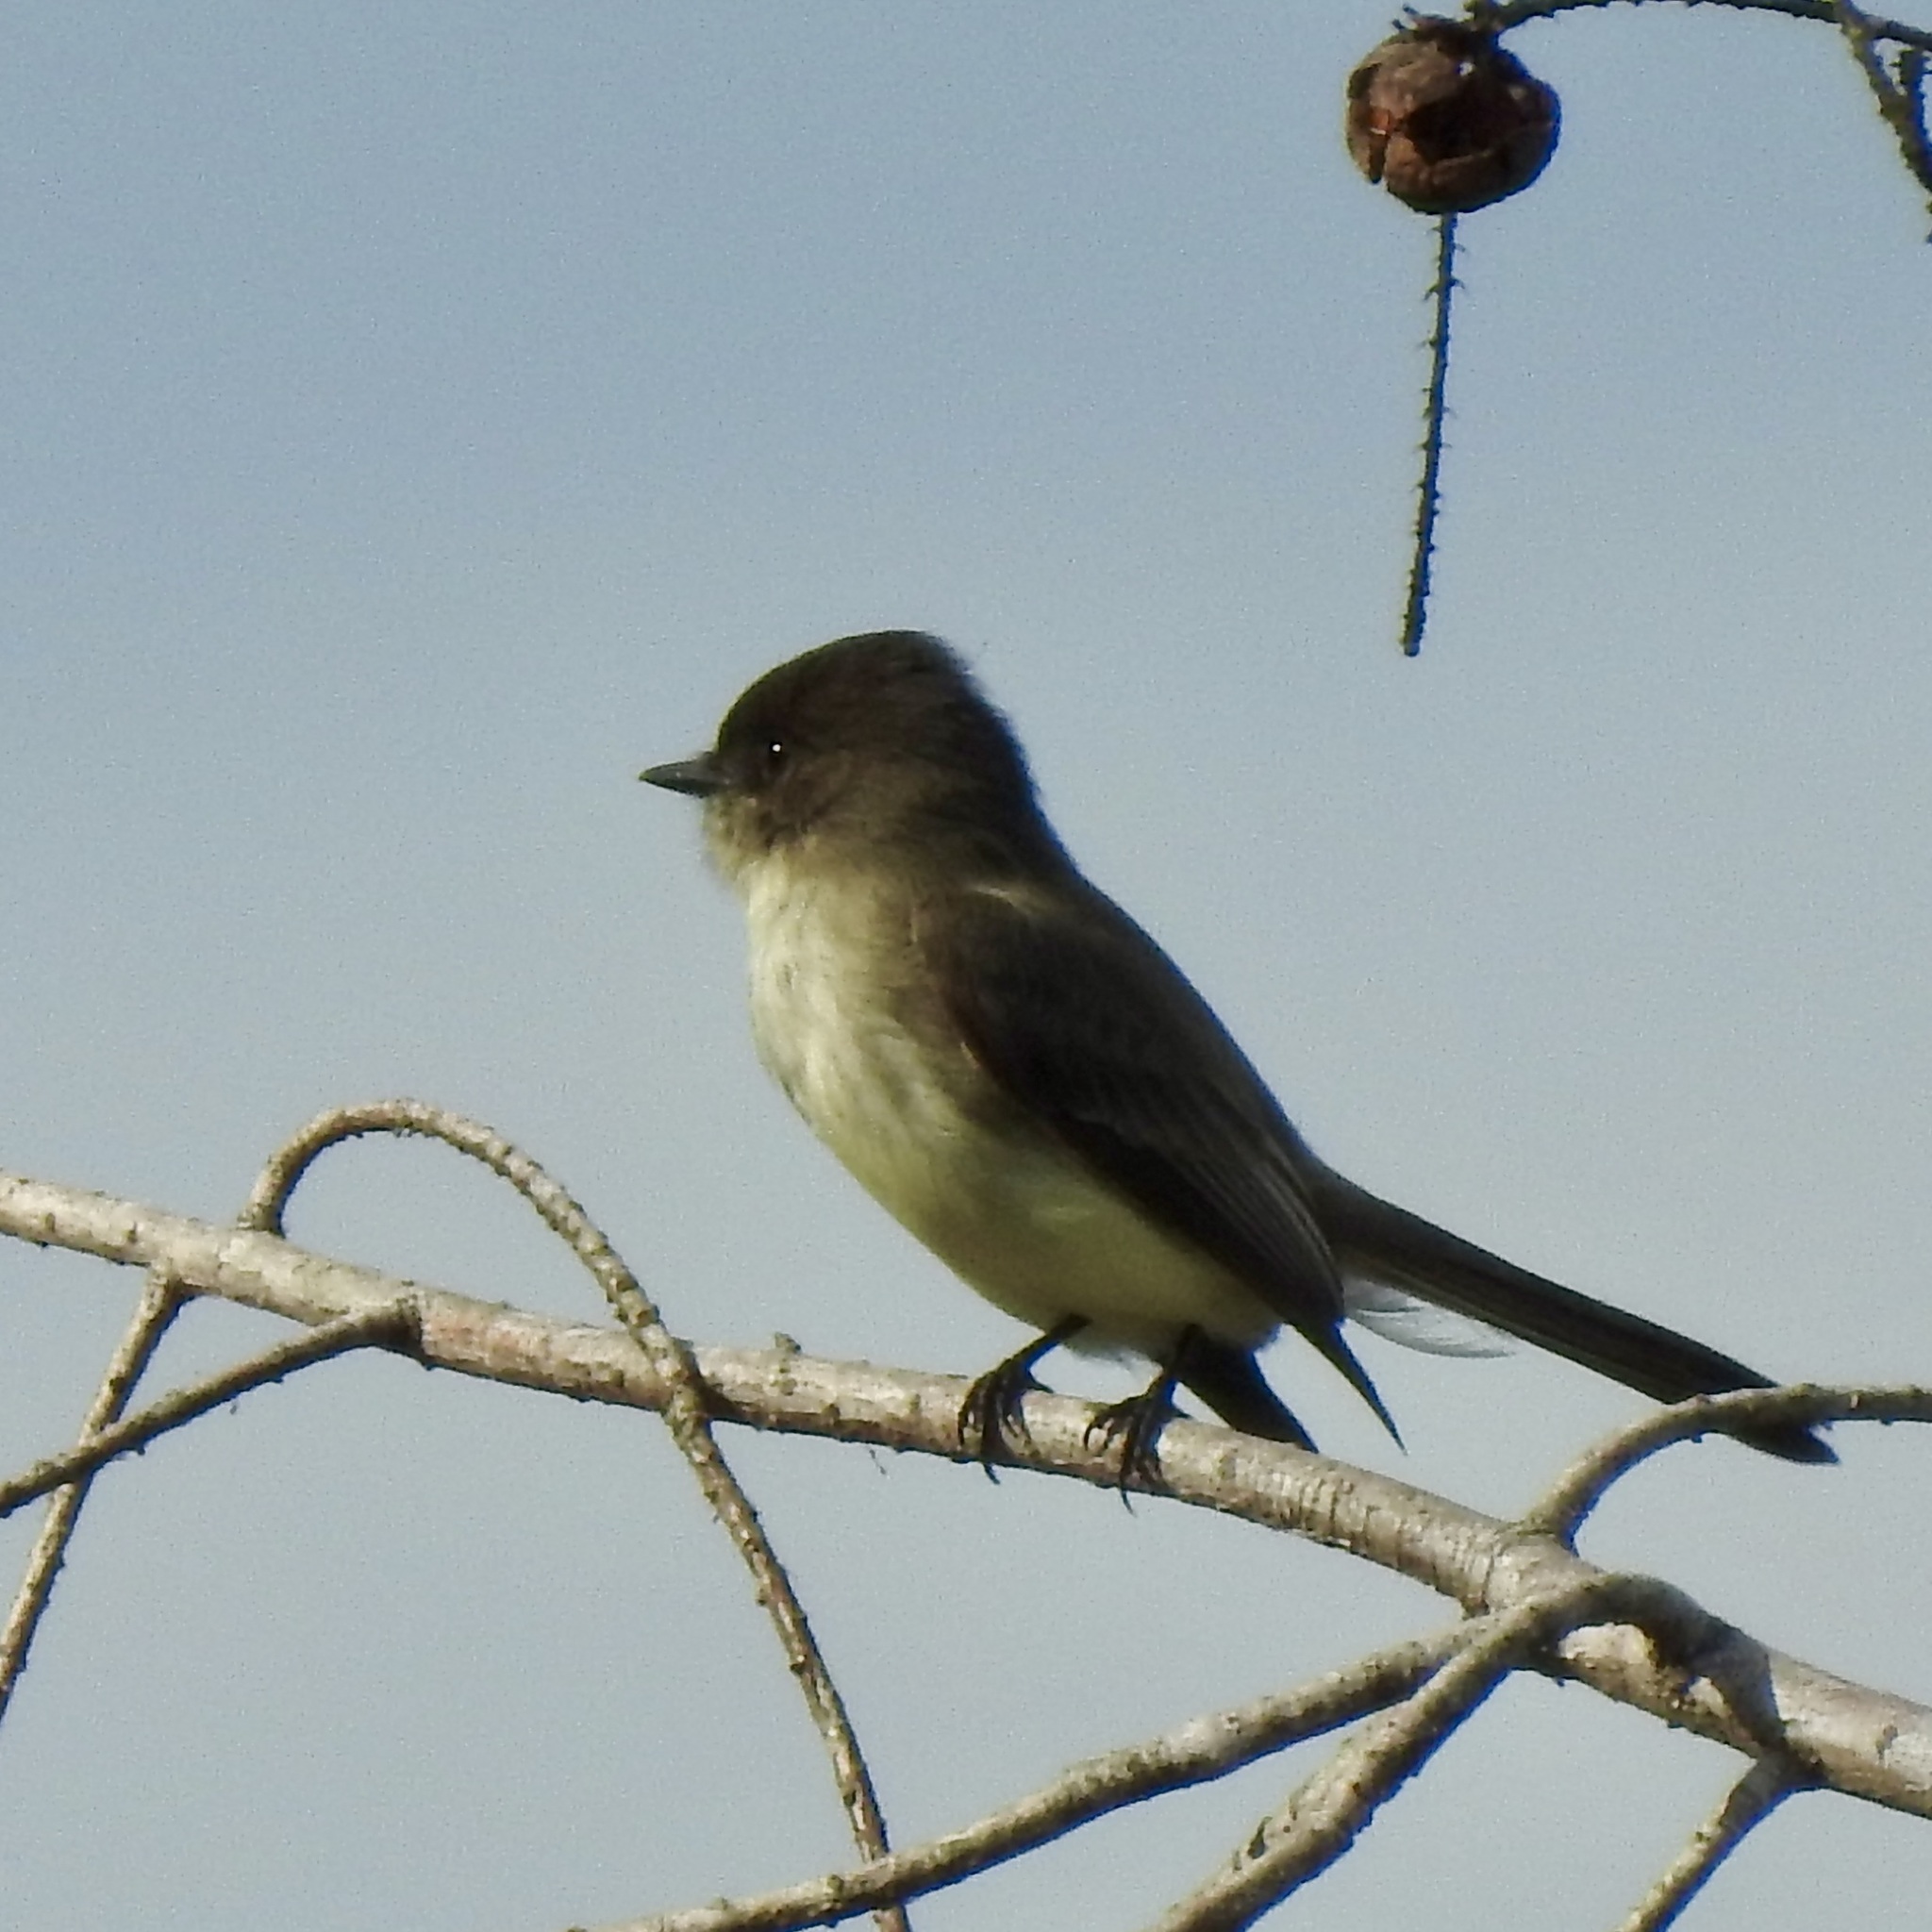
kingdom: Animalia
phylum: Chordata
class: Aves
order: Passeriformes
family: Tyrannidae
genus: Sayornis
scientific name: Sayornis phoebe
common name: Eastern phoebe
